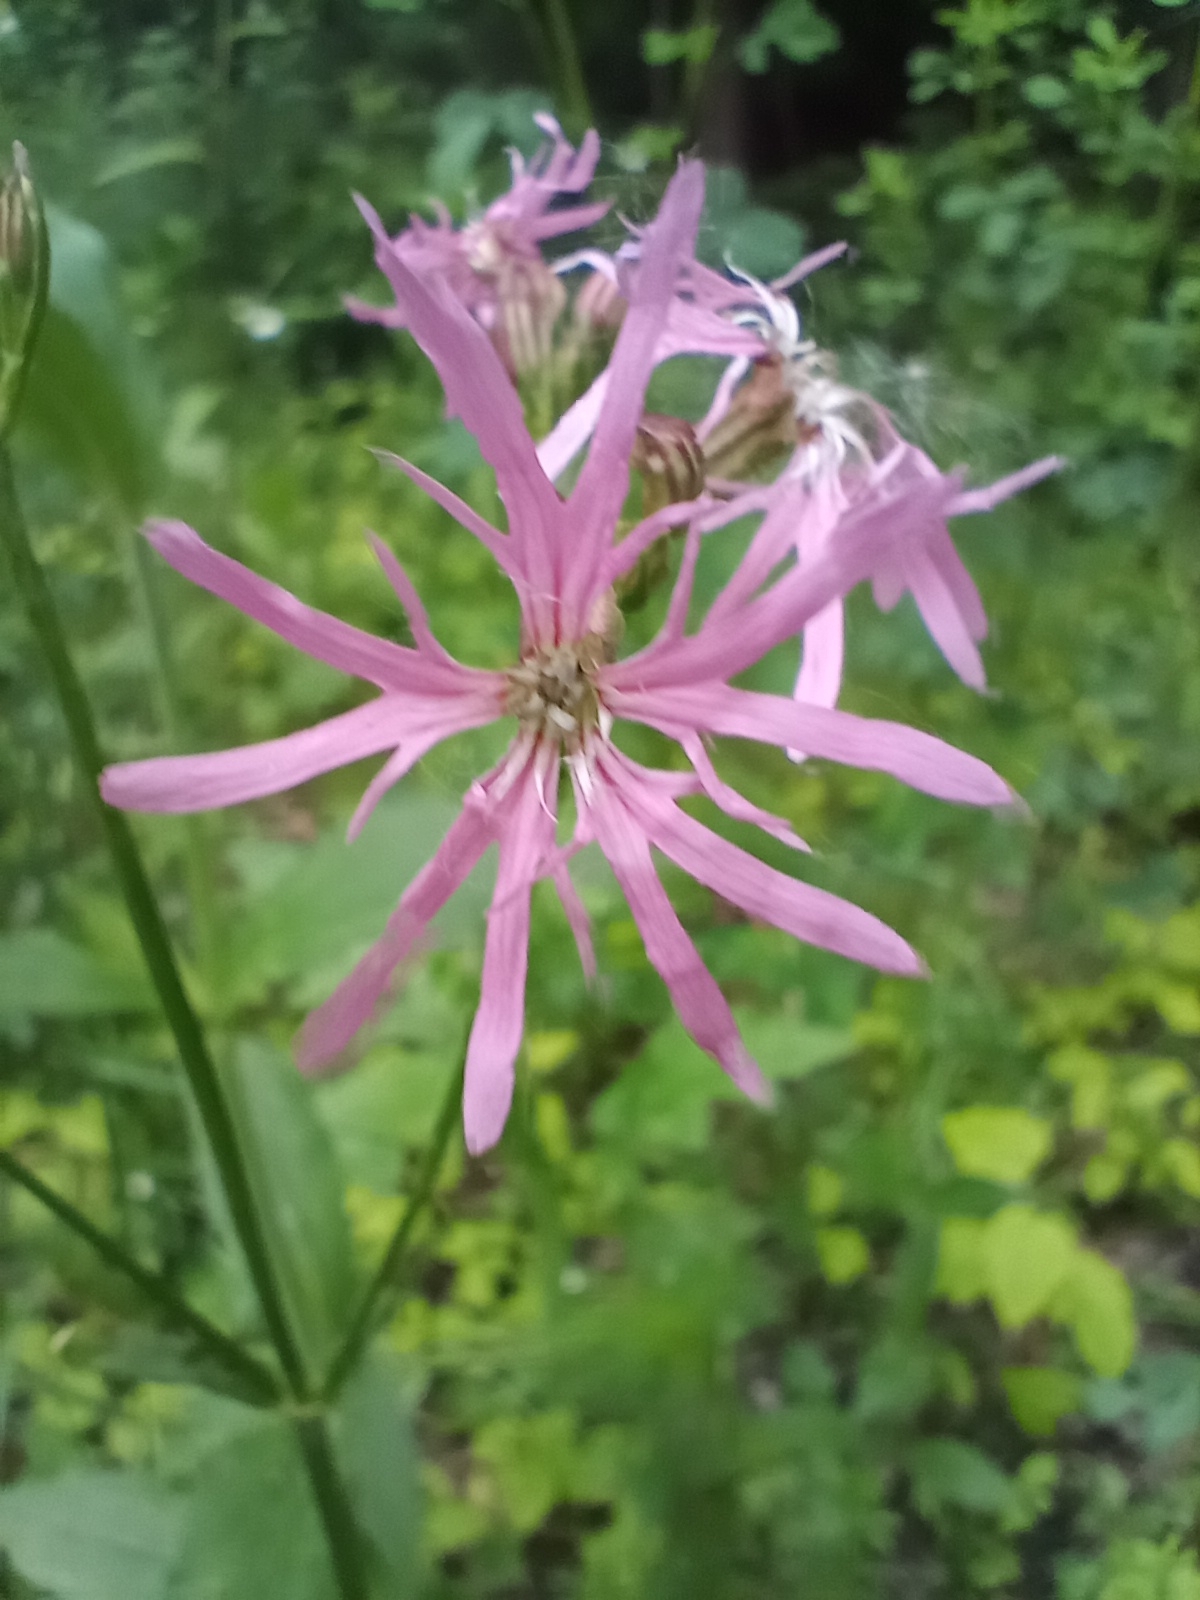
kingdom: Plantae
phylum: Tracheophyta
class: Magnoliopsida
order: Caryophyllales
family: Caryophyllaceae
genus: Silene
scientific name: Silene flos-cuculi
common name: Ragged-robin
